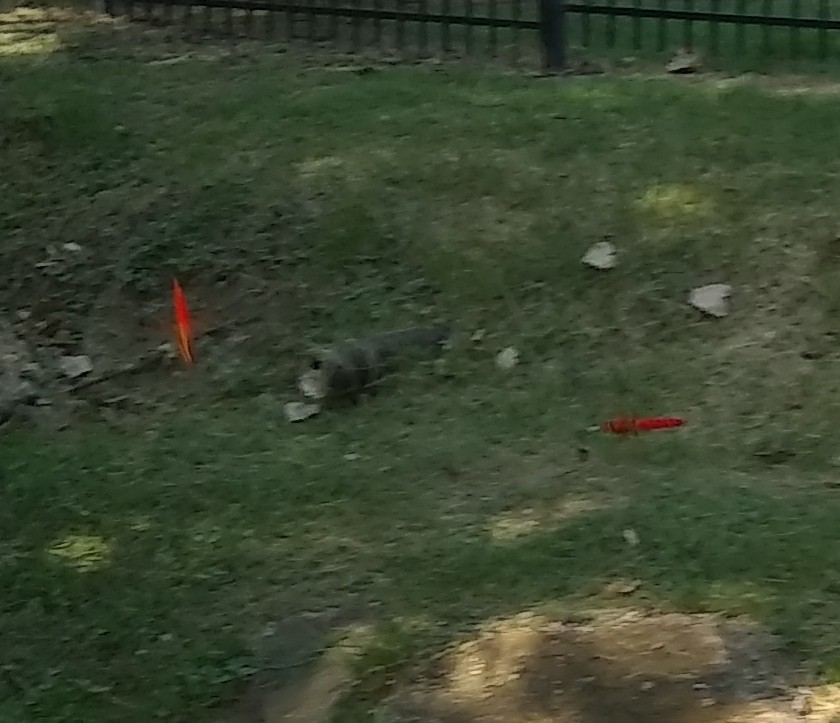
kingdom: Animalia
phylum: Arthropoda
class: Insecta
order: Odonata
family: Libellulidae
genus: Libellula
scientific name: Libellula croceipennis
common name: Neon skimmer
